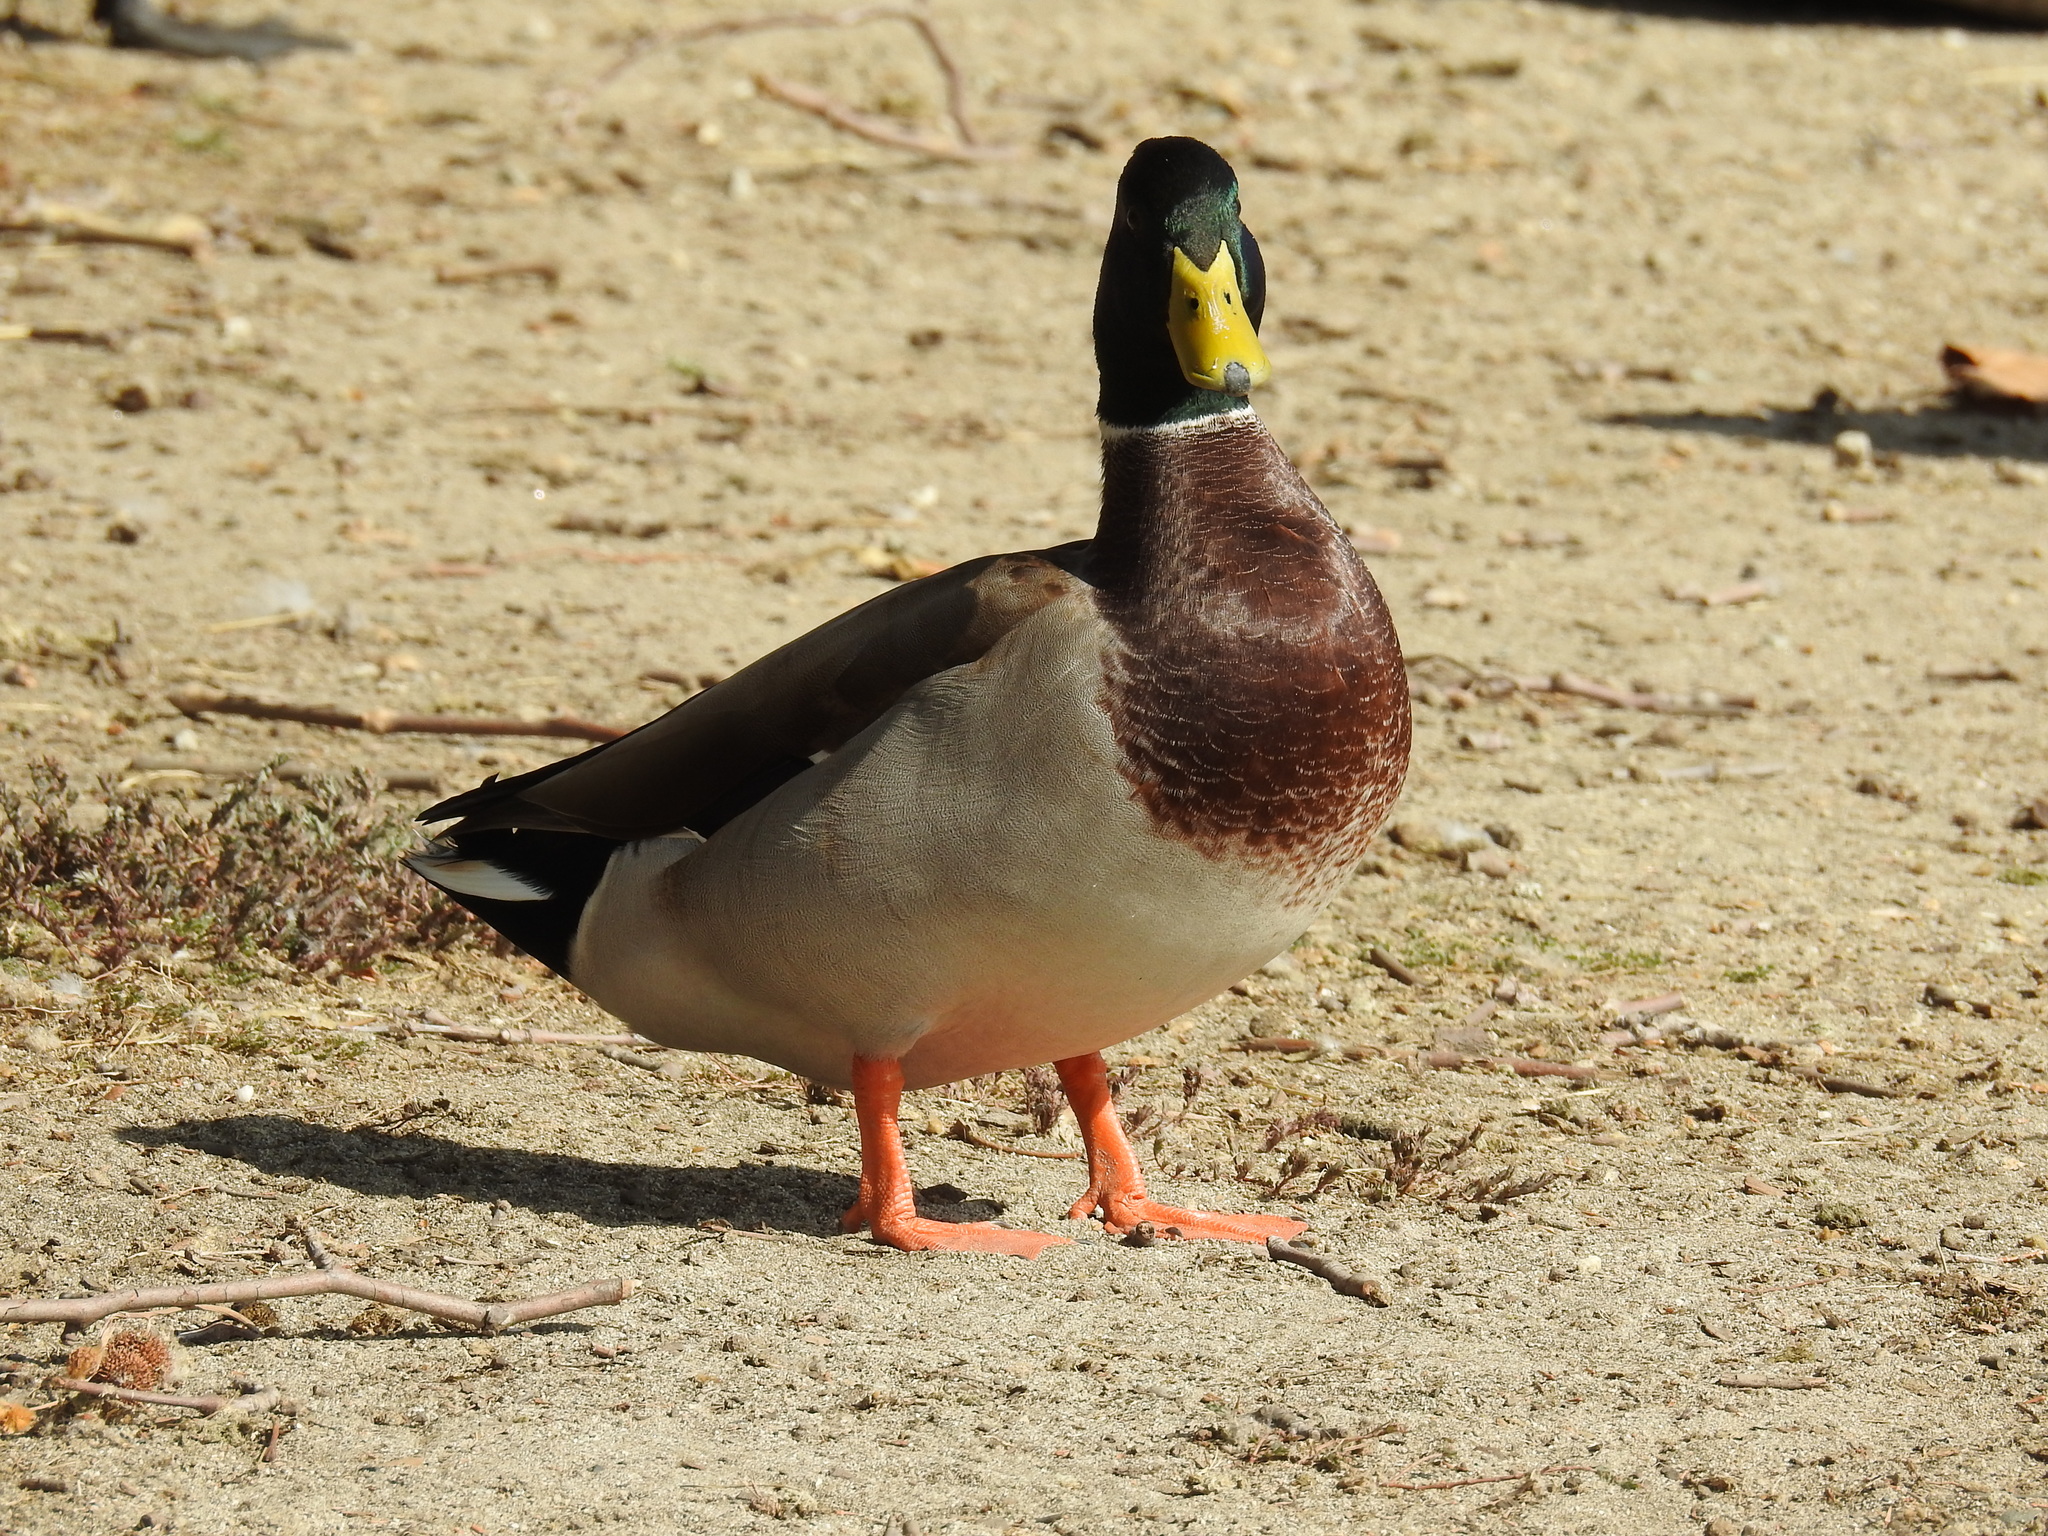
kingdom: Animalia
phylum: Chordata
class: Aves
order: Anseriformes
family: Anatidae
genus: Anas
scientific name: Anas platyrhynchos
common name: Mallard
